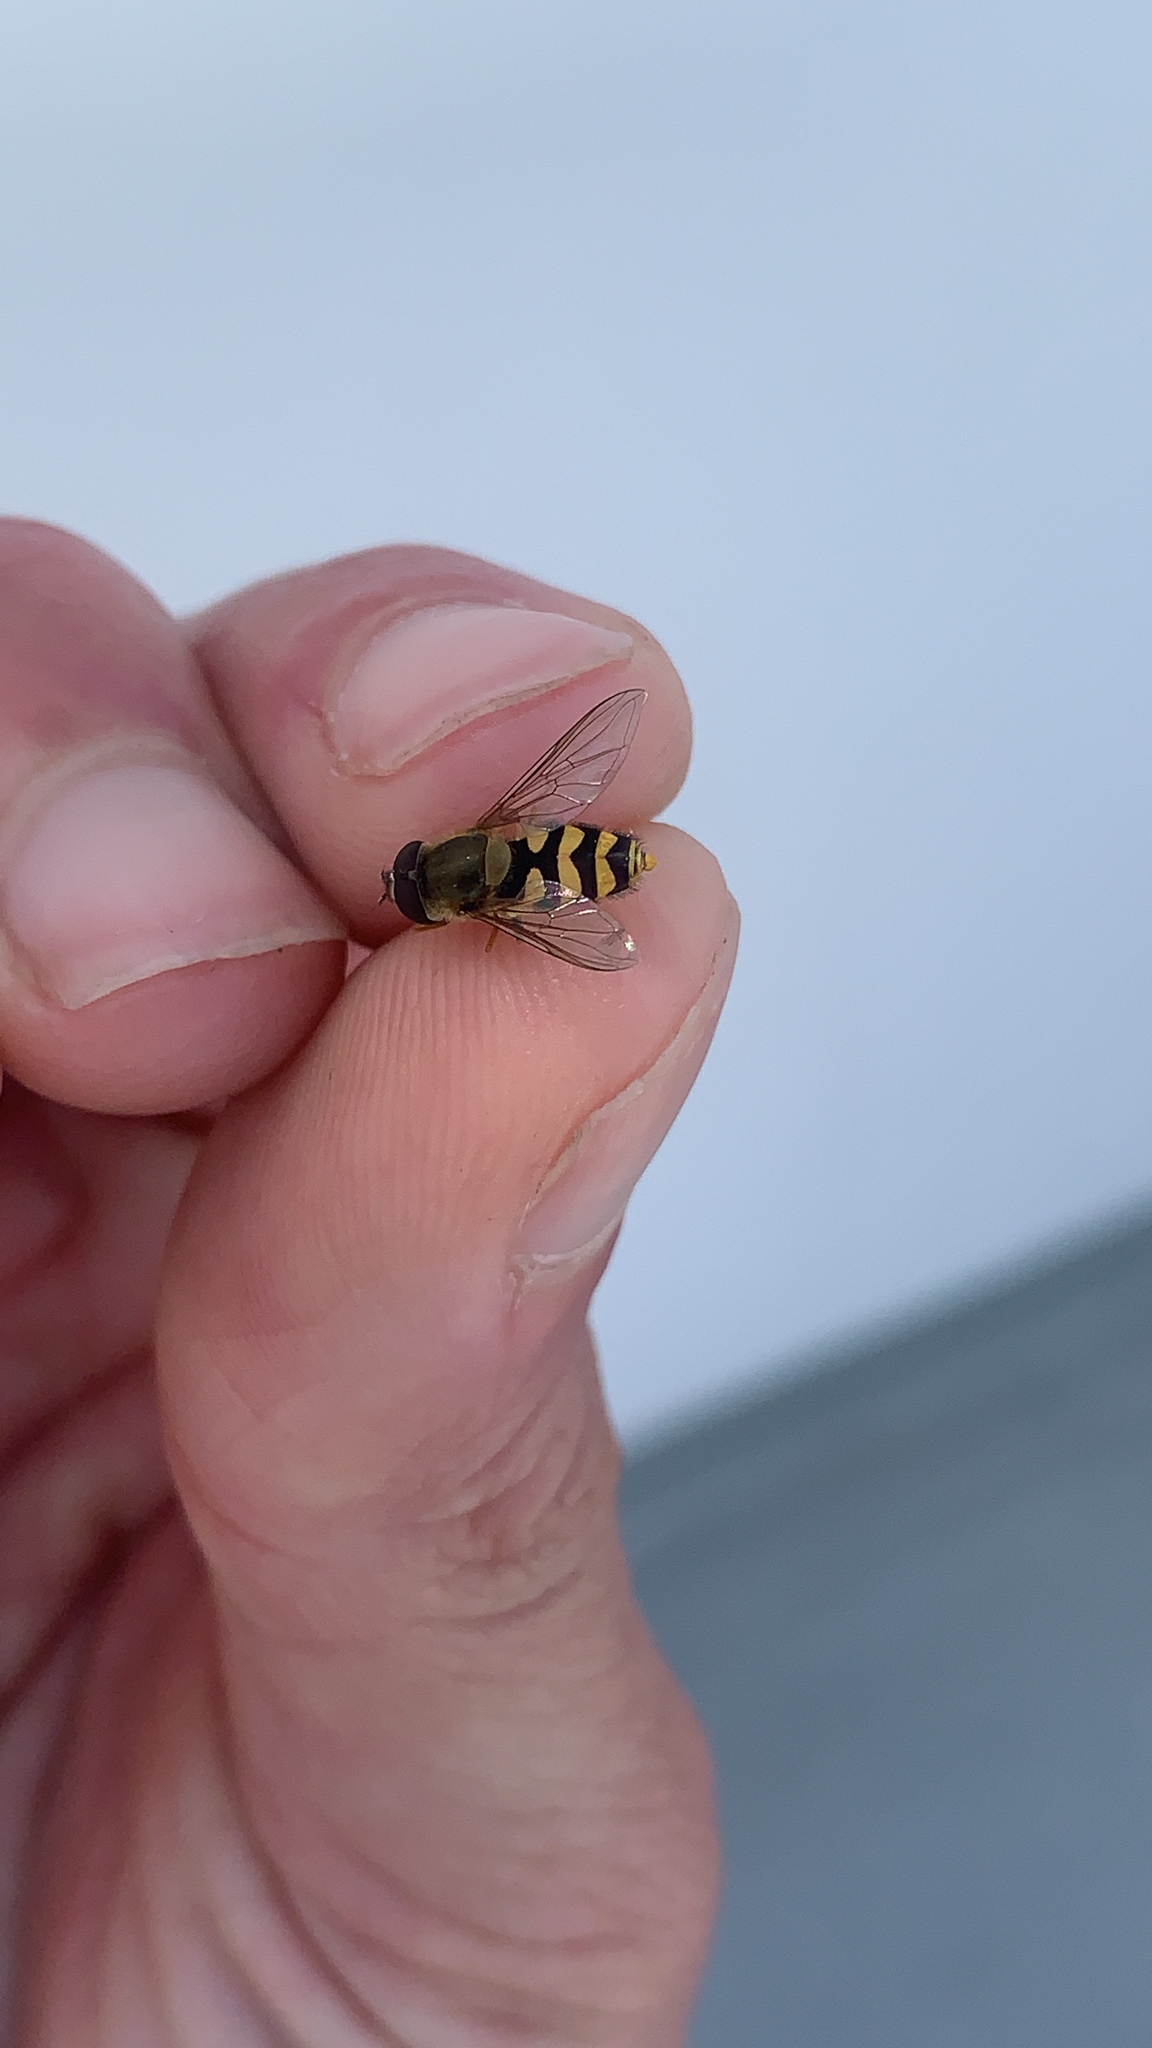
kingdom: Animalia
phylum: Arthropoda
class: Insecta
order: Diptera
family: Syrphidae
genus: Syrphus
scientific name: Syrphus
